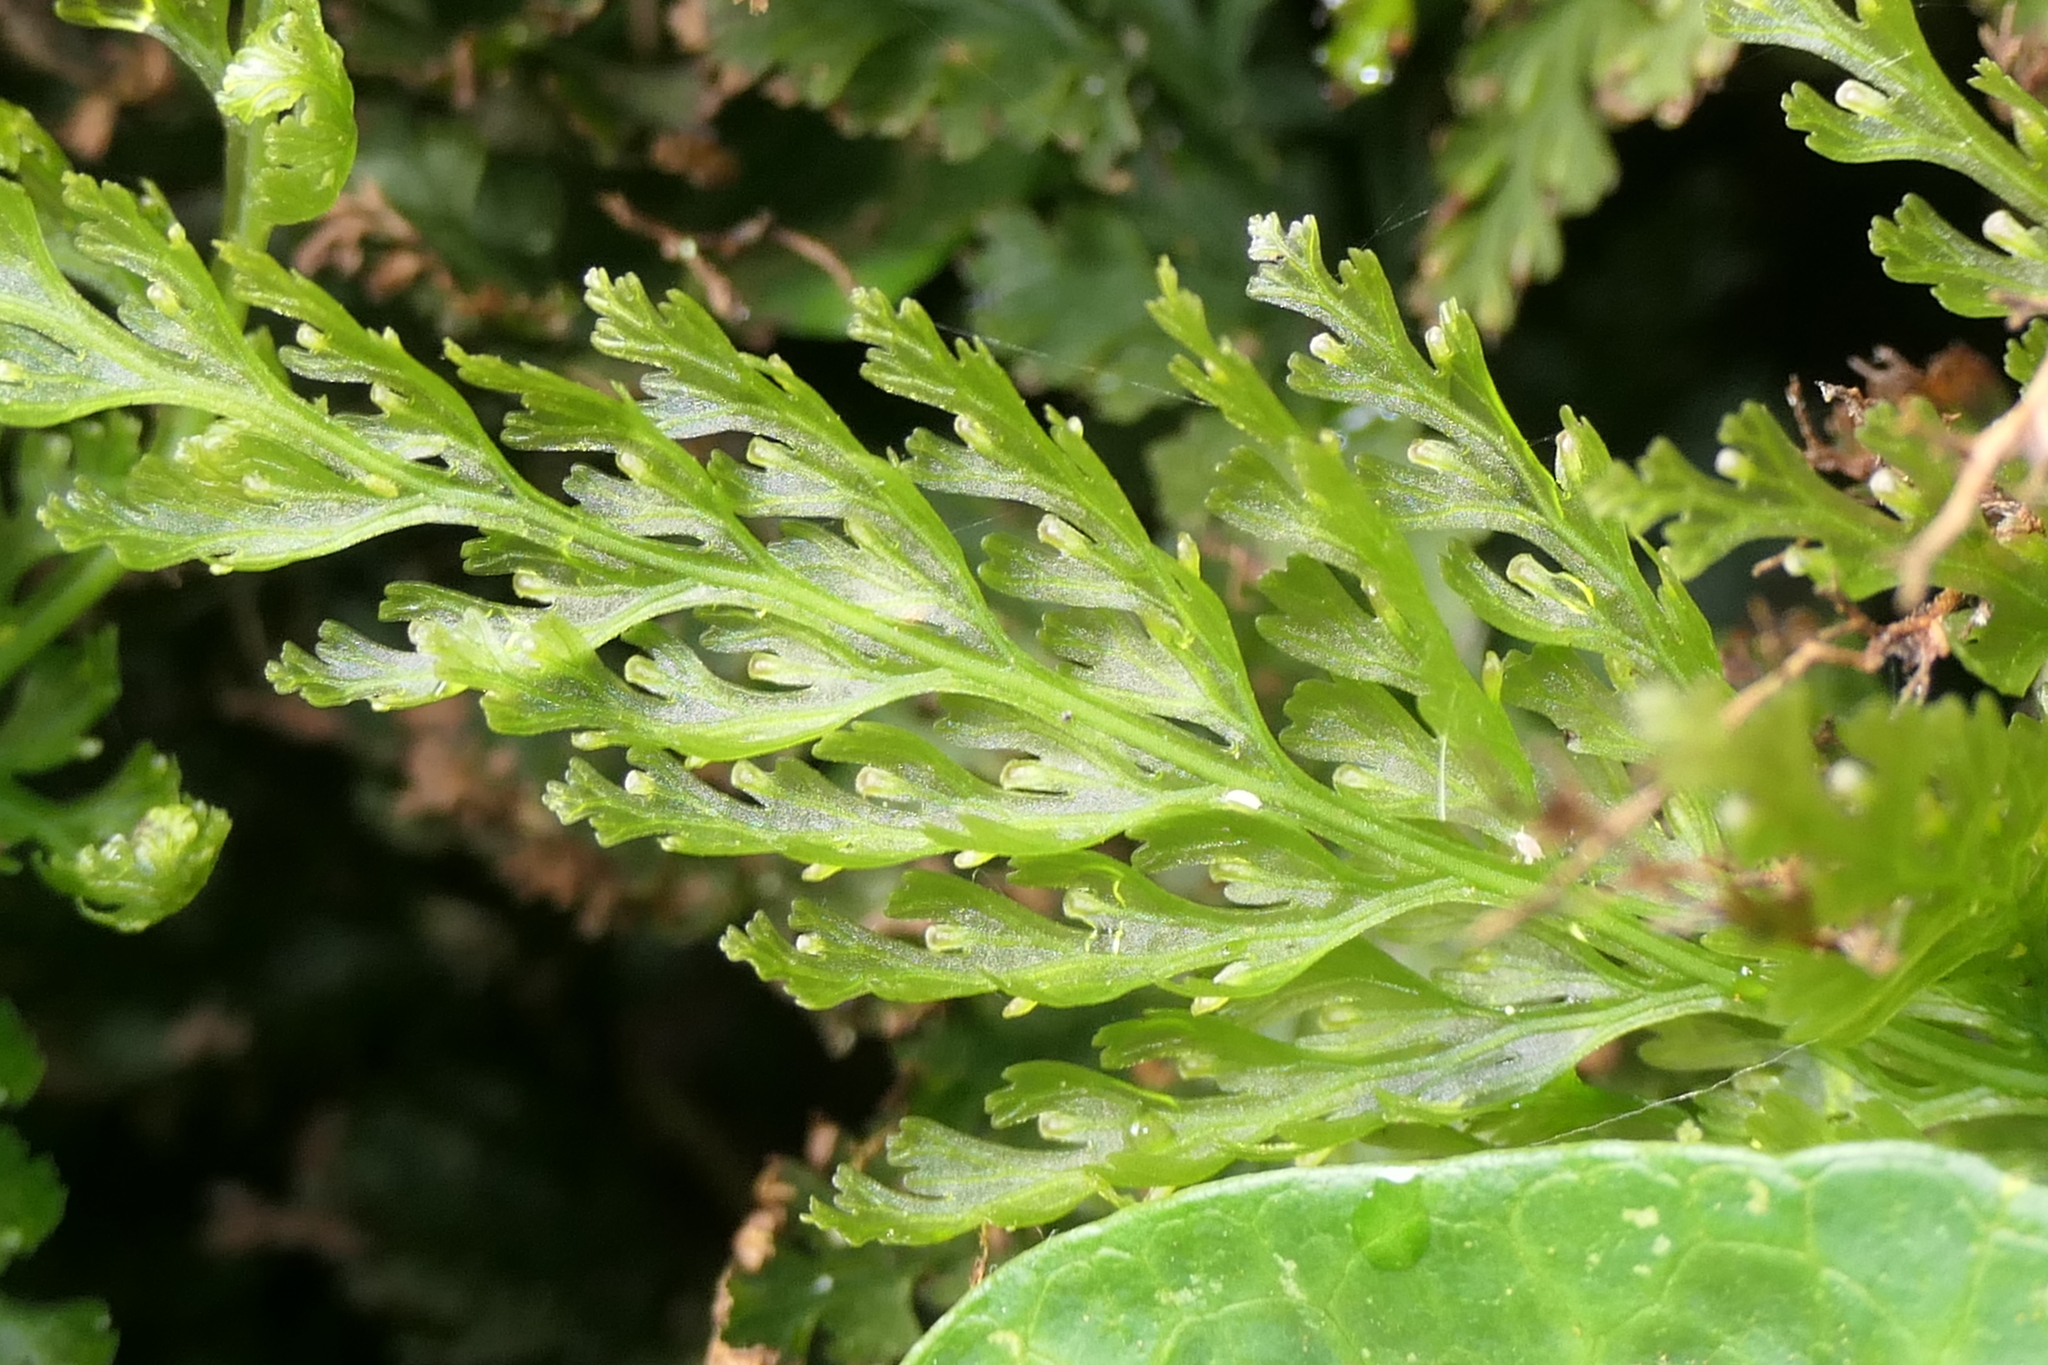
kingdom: Plantae
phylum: Tracheophyta
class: Polypodiopsida
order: Hymenophyllales
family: Hymenophyllaceae
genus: Vandenboschia
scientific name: Vandenboschia speciosa
